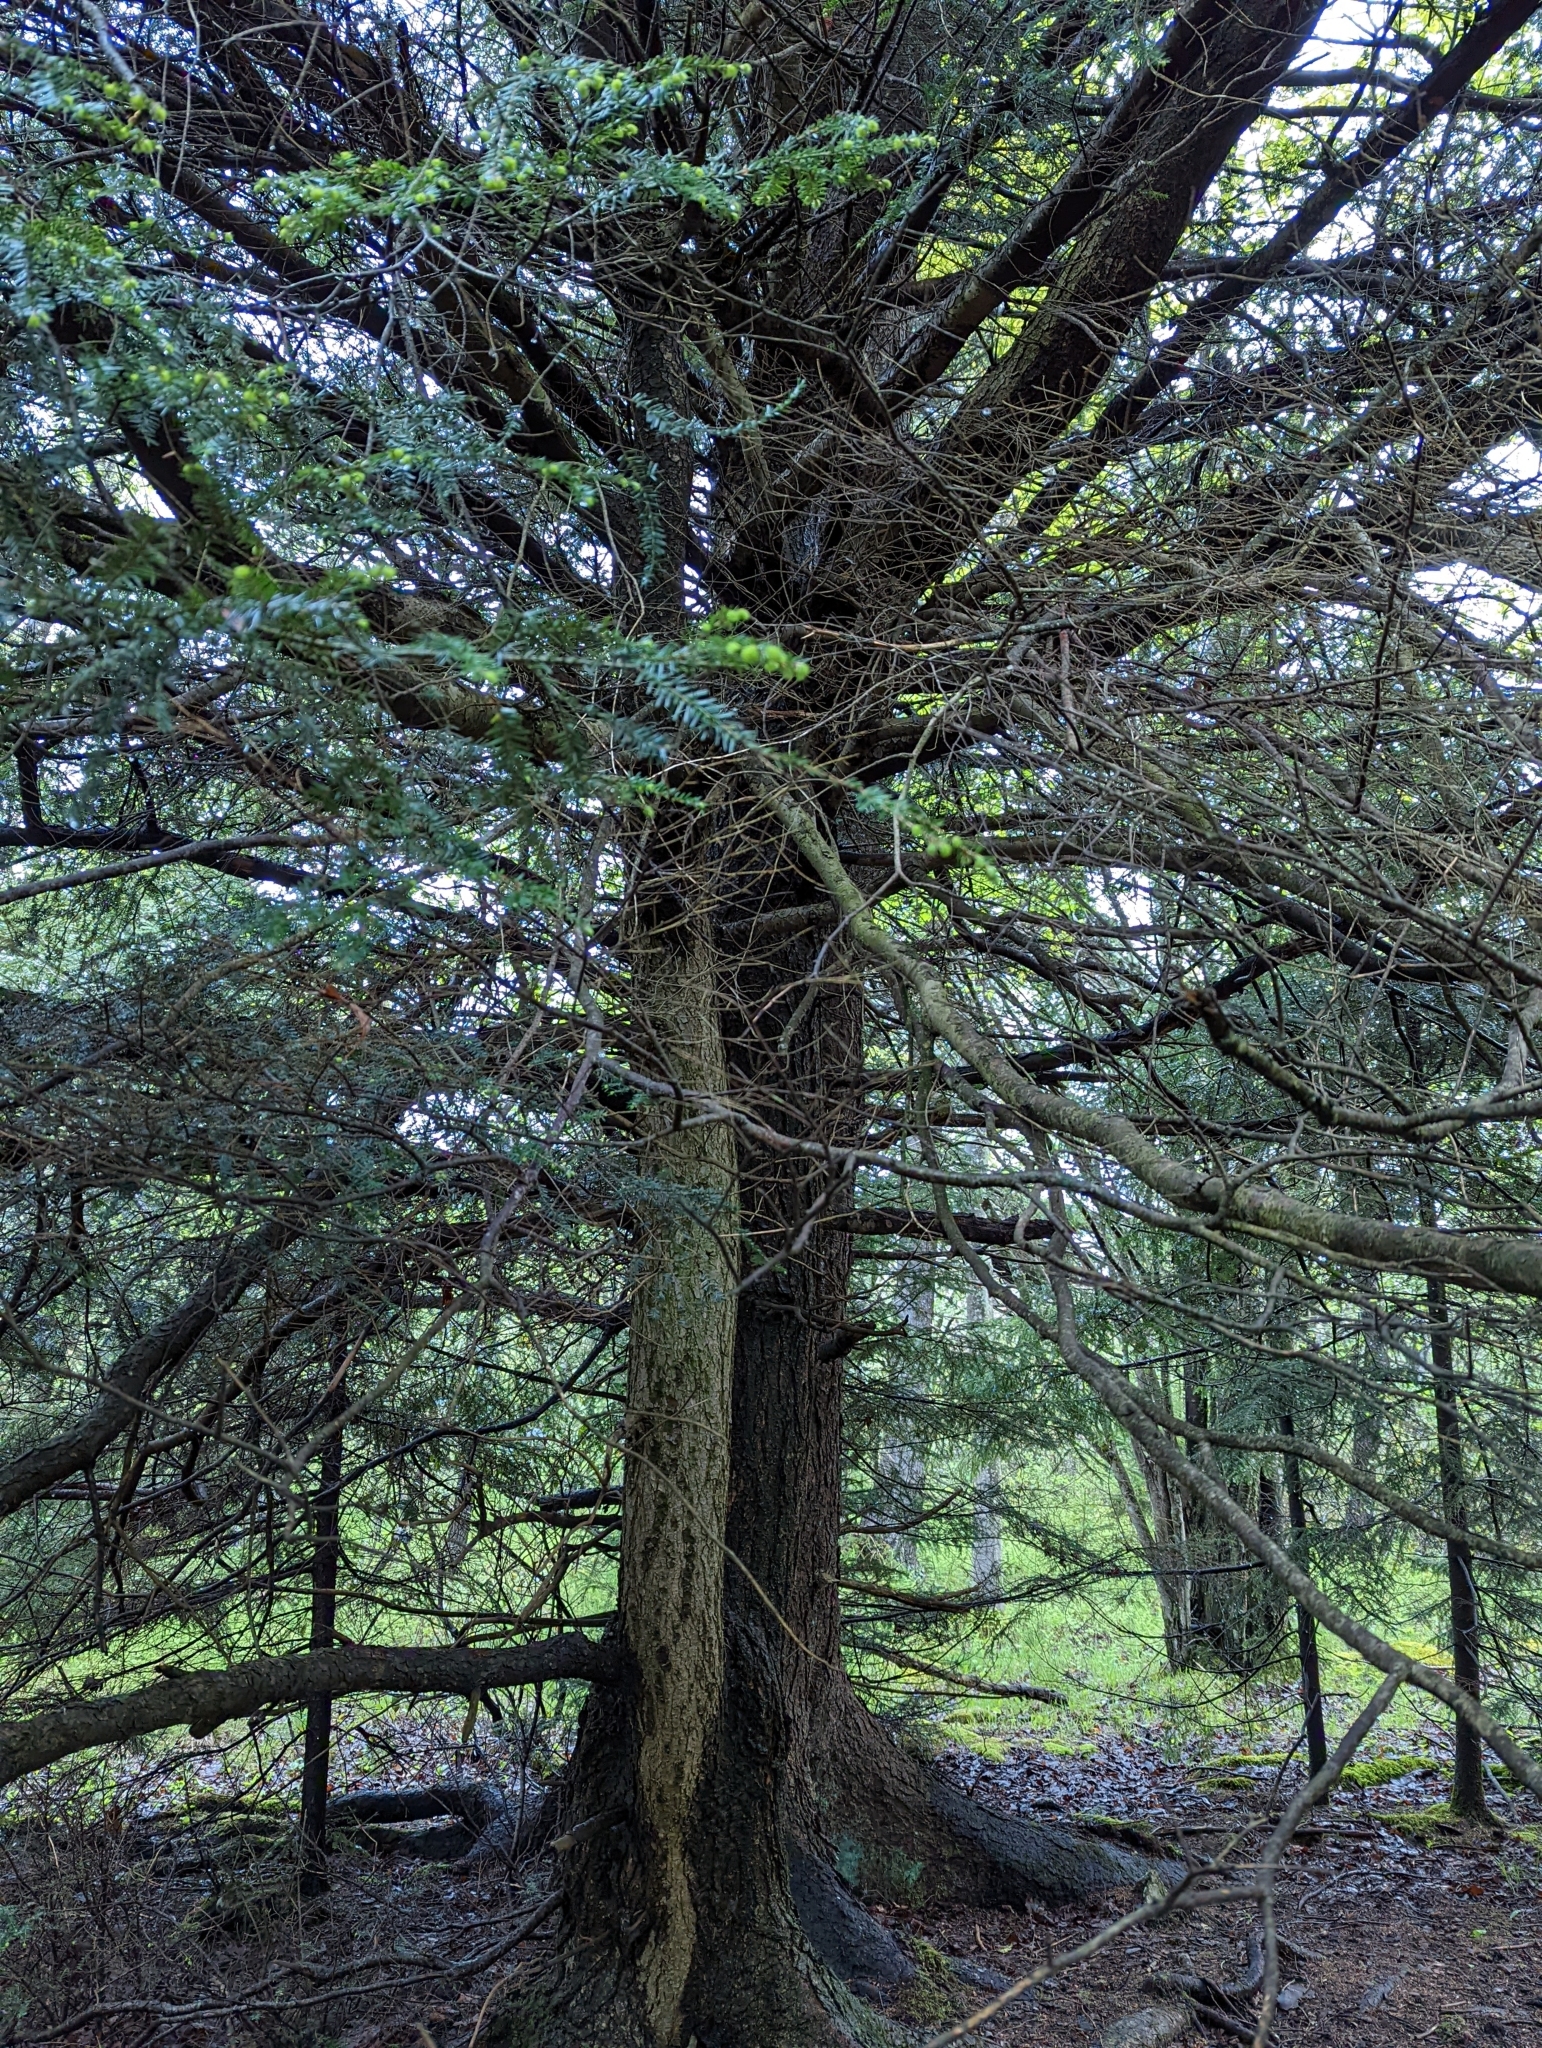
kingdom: Plantae
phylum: Tracheophyta
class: Pinopsida
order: Pinales
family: Pinaceae
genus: Tsuga
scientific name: Tsuga canadensis
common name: Eastern hemlock
